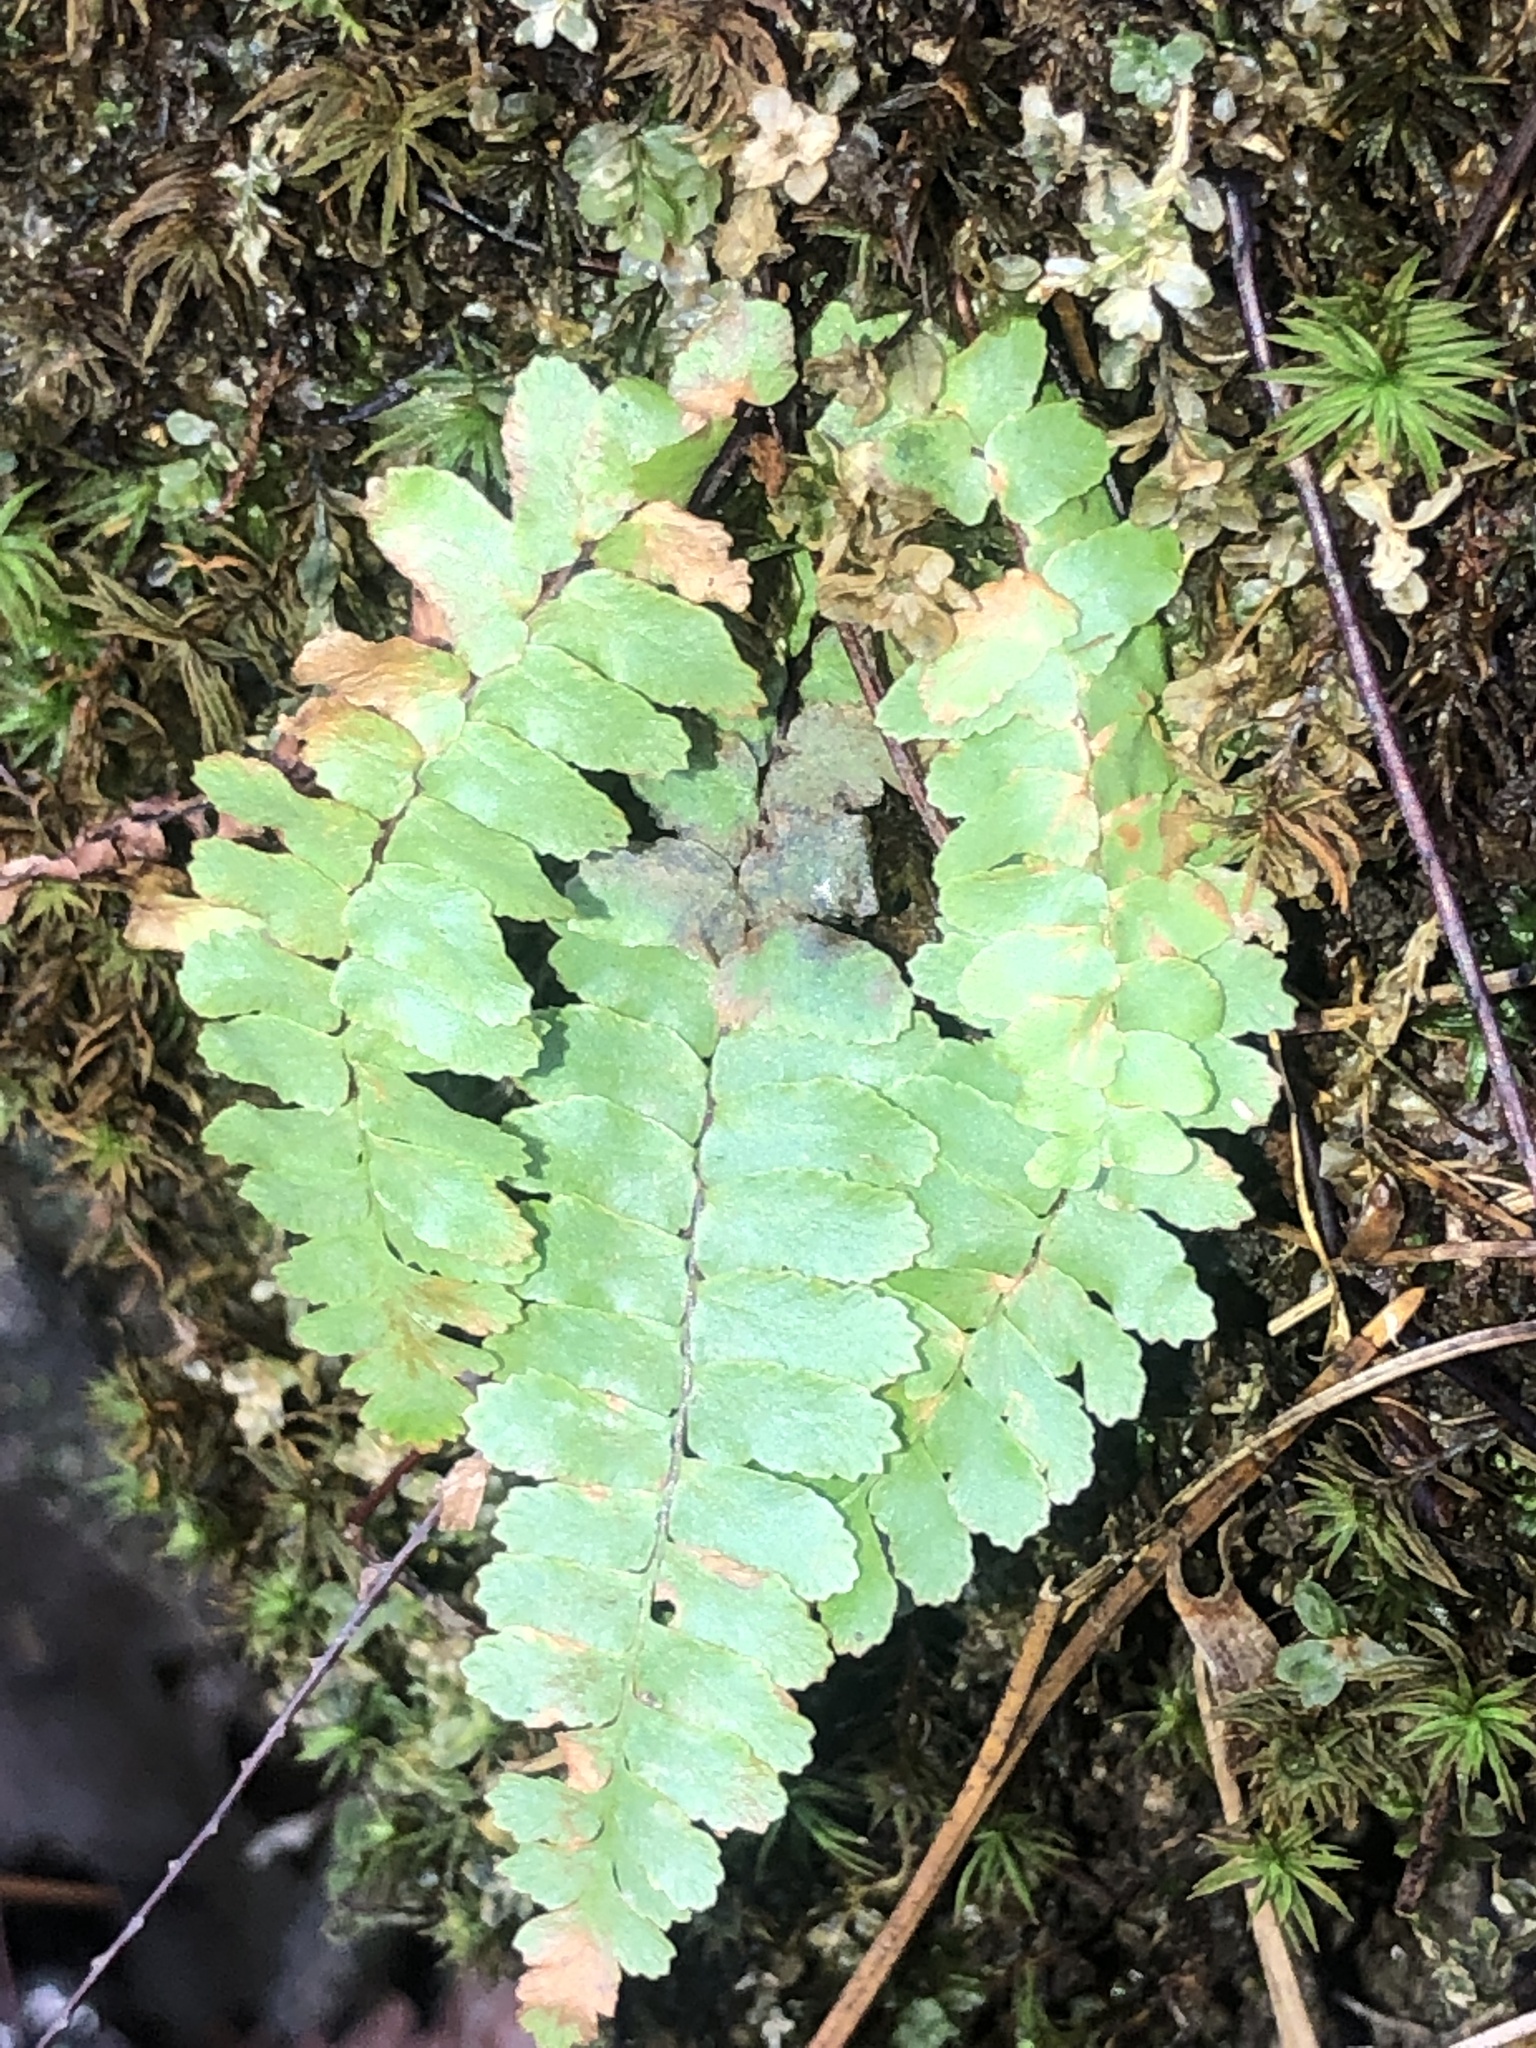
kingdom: Plantae
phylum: Tracheophyta
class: Polypodiopsida
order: Polypodiales
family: Aspleniaceae
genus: Asplenium
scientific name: Asplenium platyneuron
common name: Ebony spleenwort
